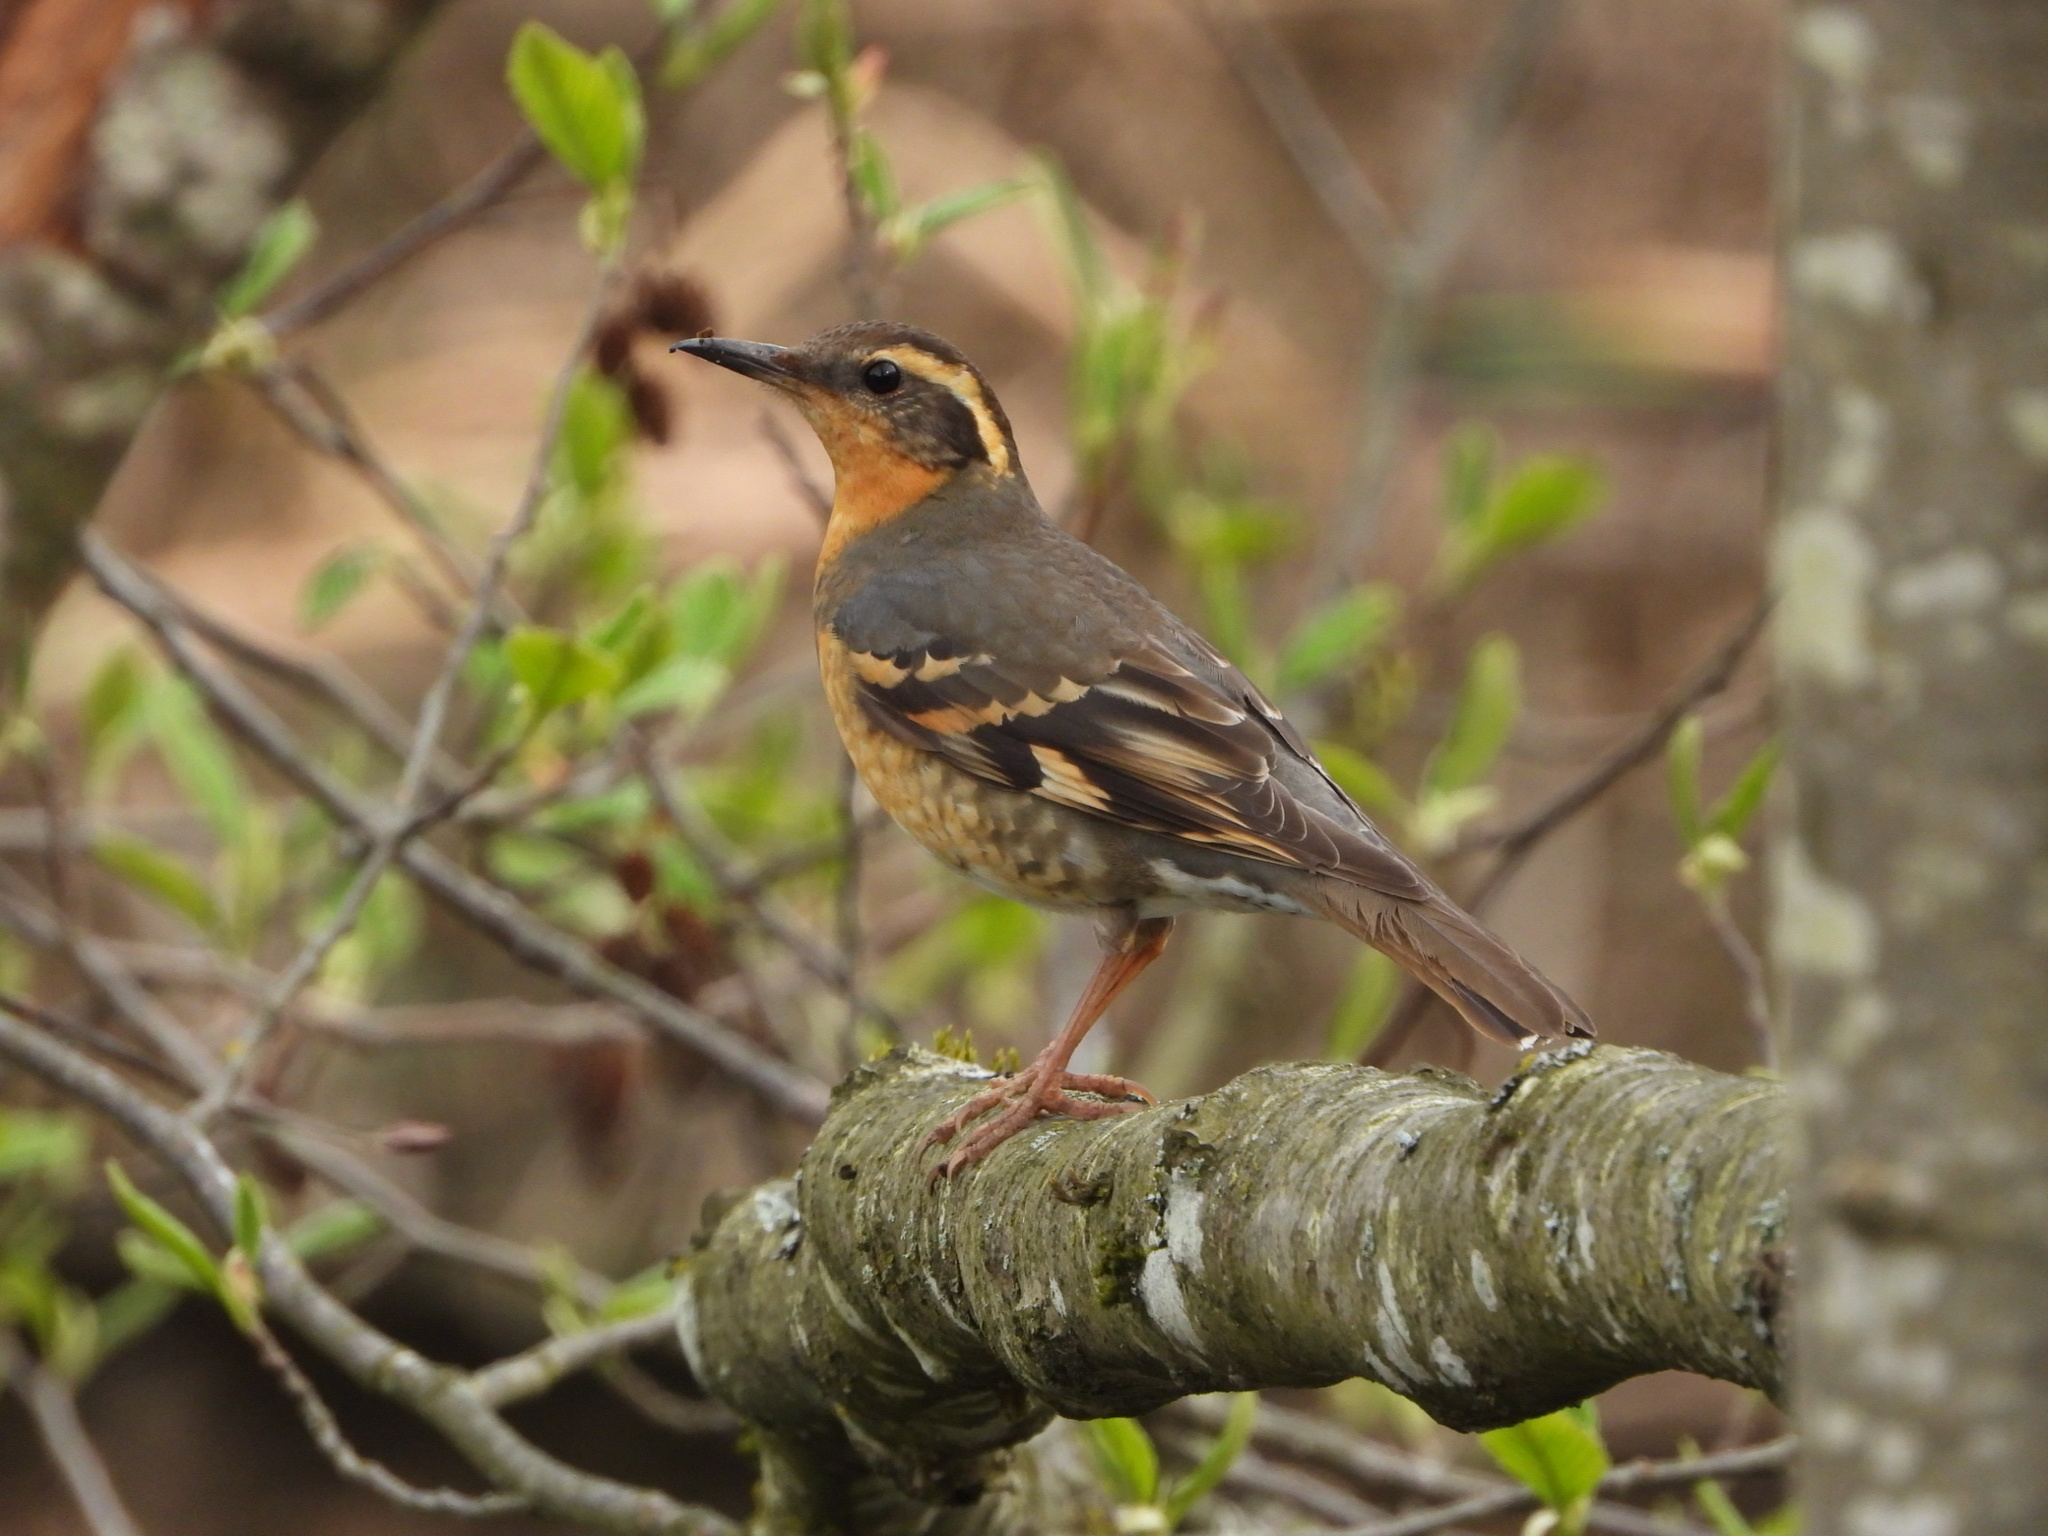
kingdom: Animalia
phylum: Chordata
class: Aves
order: Passeriformes
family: Turdidae
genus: Ixoreus
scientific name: Ixoreus naevius
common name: Varied thrush
